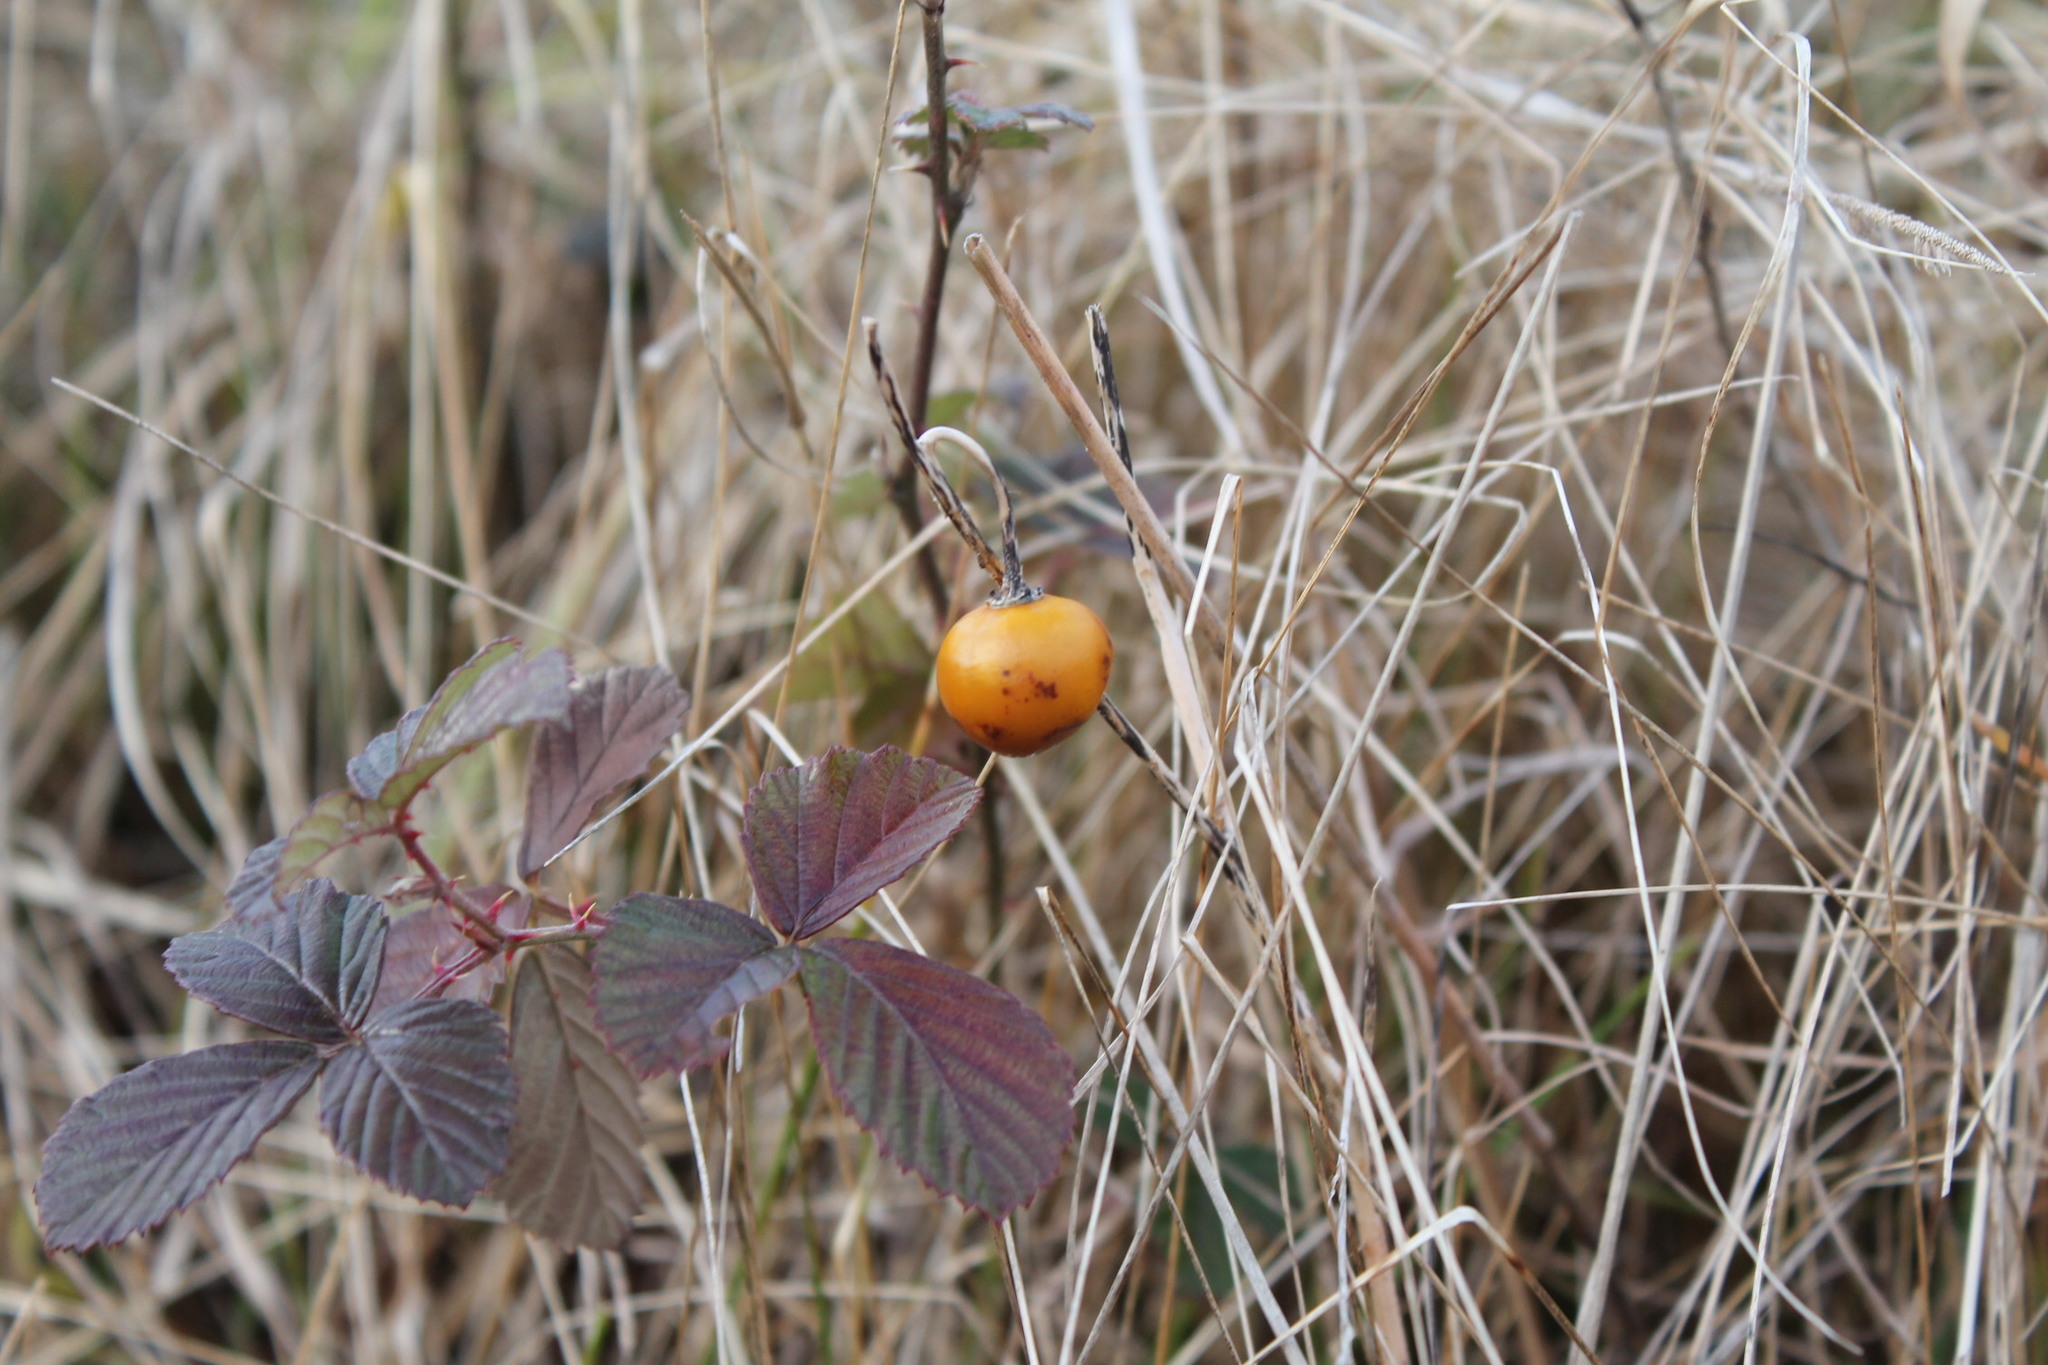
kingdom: Plantae
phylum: Tracheophyta
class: Magnoliopsida
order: Solanales
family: Solanaceae
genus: Solanum
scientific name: Solanum carolinense
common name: Horse-nettle
